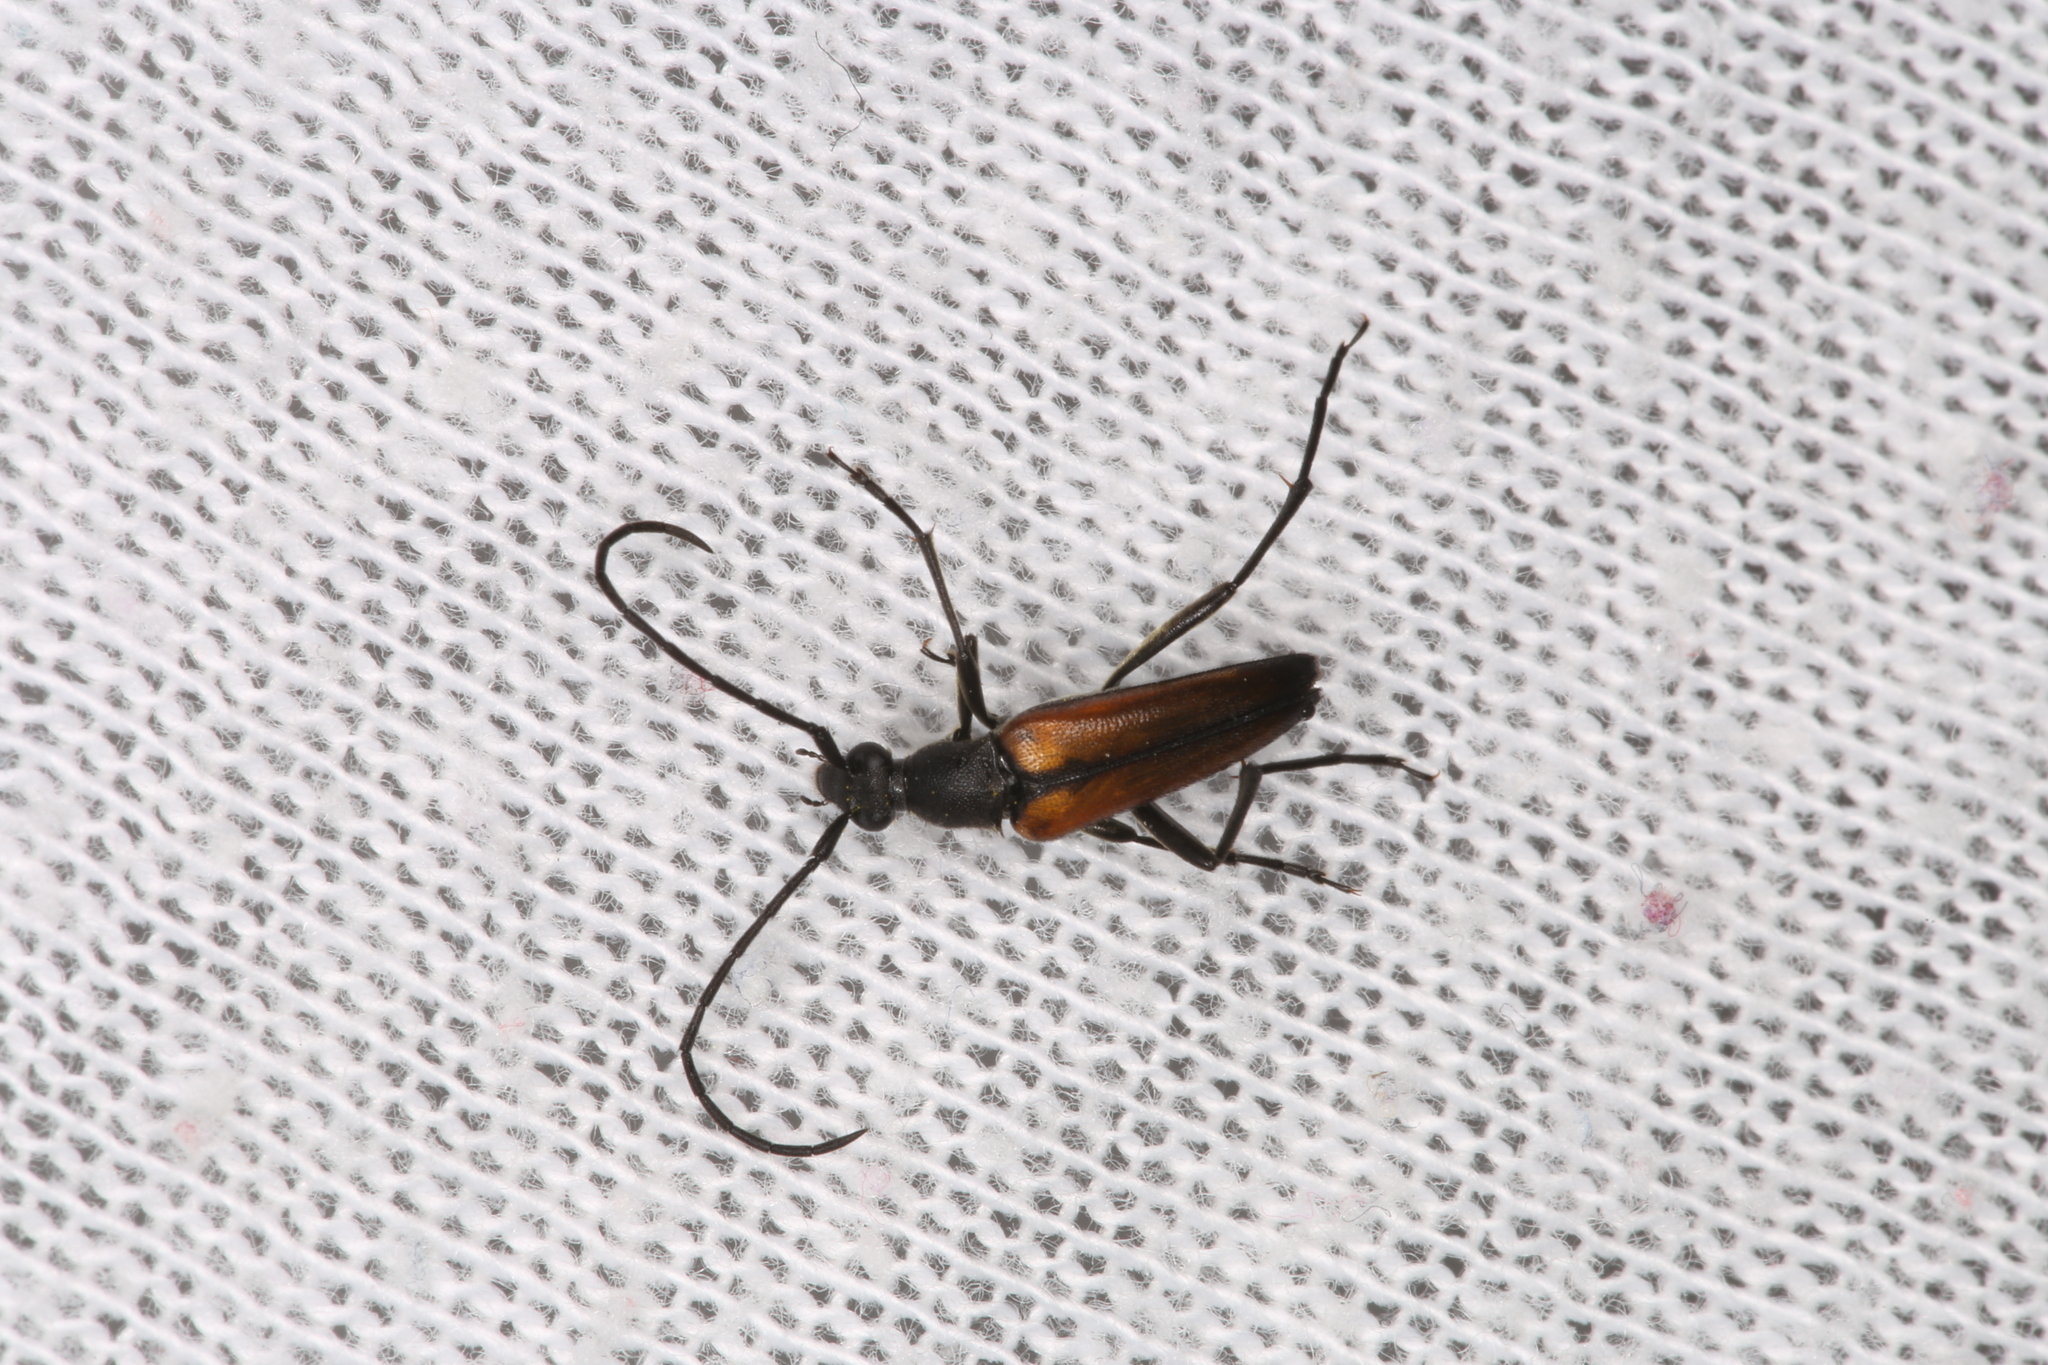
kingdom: Animalia
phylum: Arthropoda
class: Insecta
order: Coleoptera
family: Cerambycidae
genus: Stenurella
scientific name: Stenurella melanura
